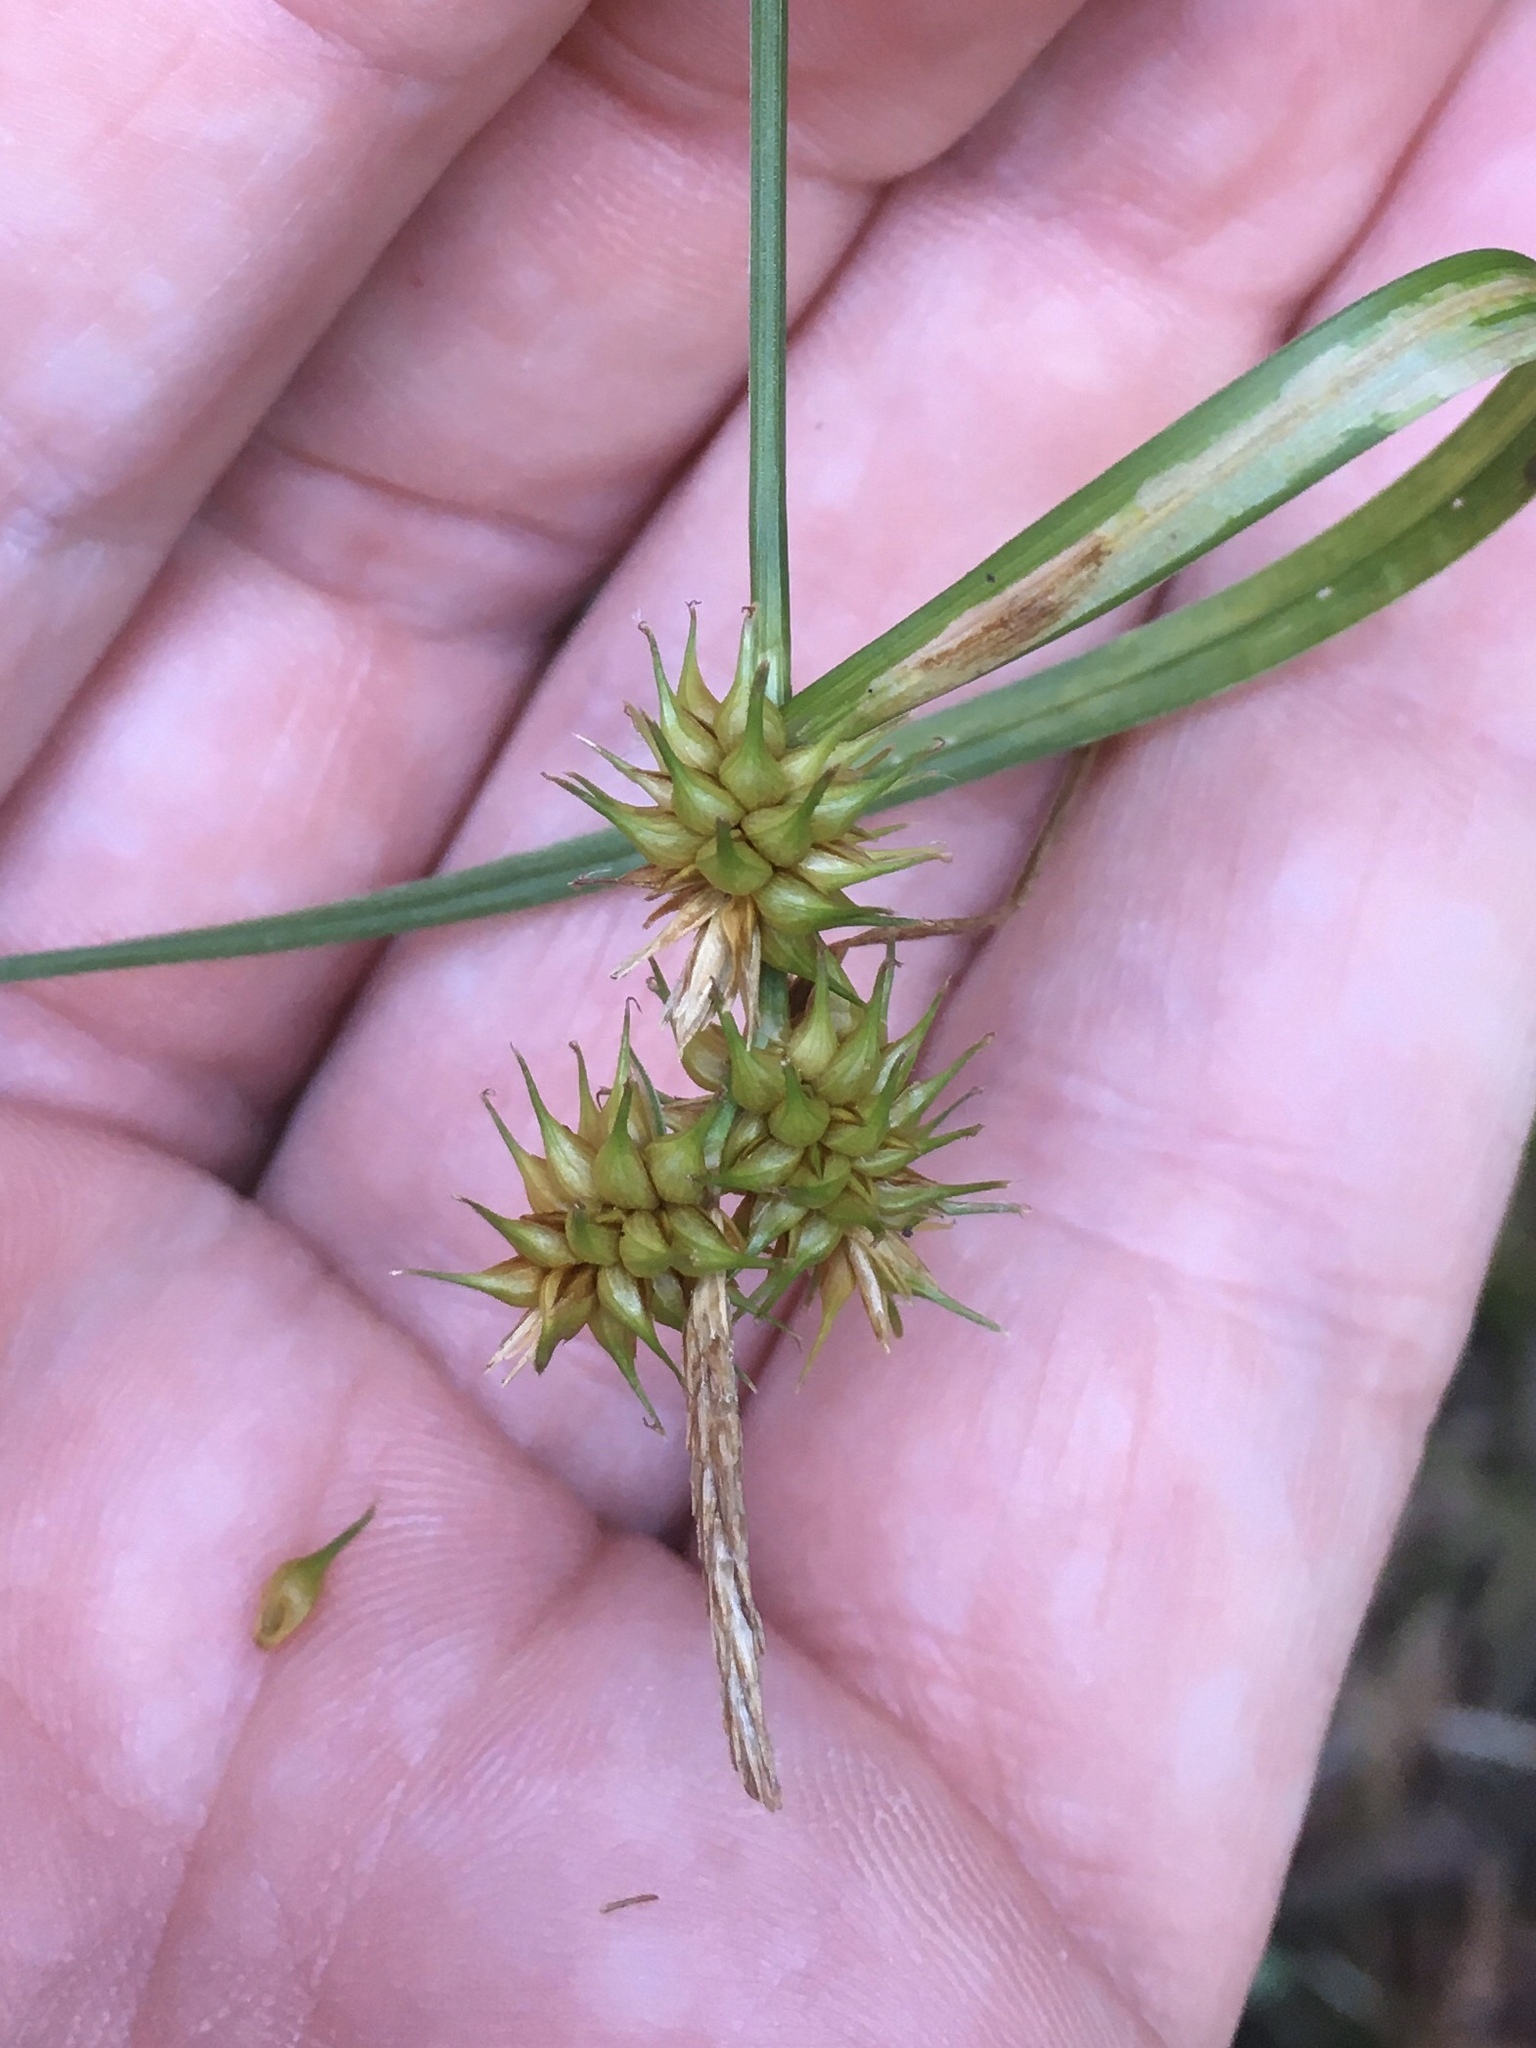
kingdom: Plantae
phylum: Tracheophyta
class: Liliopsida
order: Poales
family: Cyperaceae
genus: Carex
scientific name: Carex flava
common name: Large yellow-sedge
